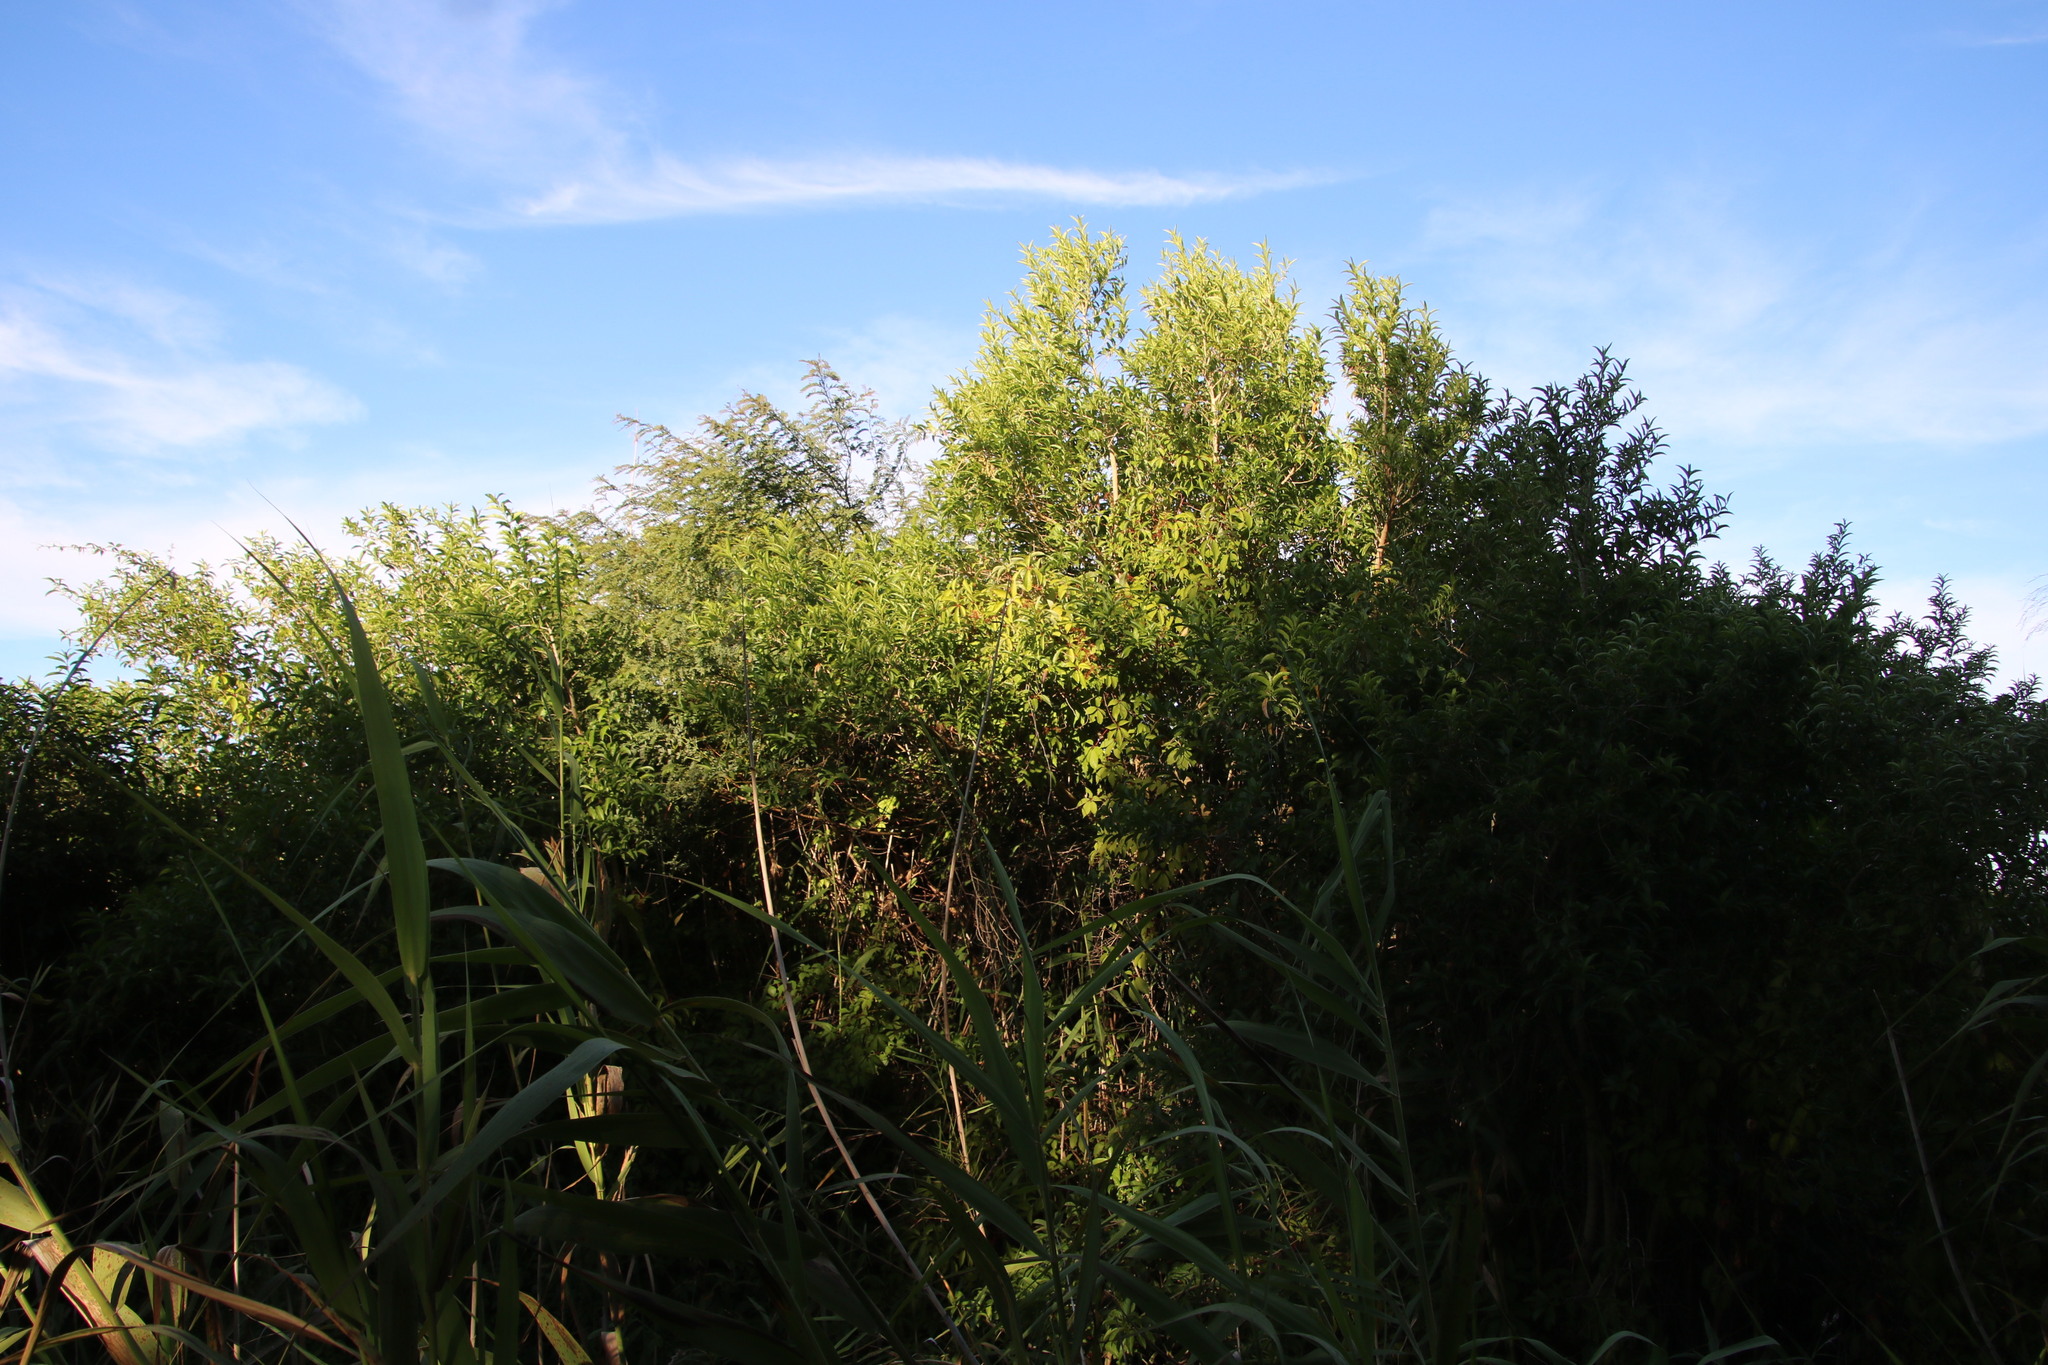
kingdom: Plantae
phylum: Tracheophyta
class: Magnoliopsida
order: Vitales
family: Vitaceae
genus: Parthenocissus
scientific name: Parthenocissus quinquefolia
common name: Virginia-creeper
